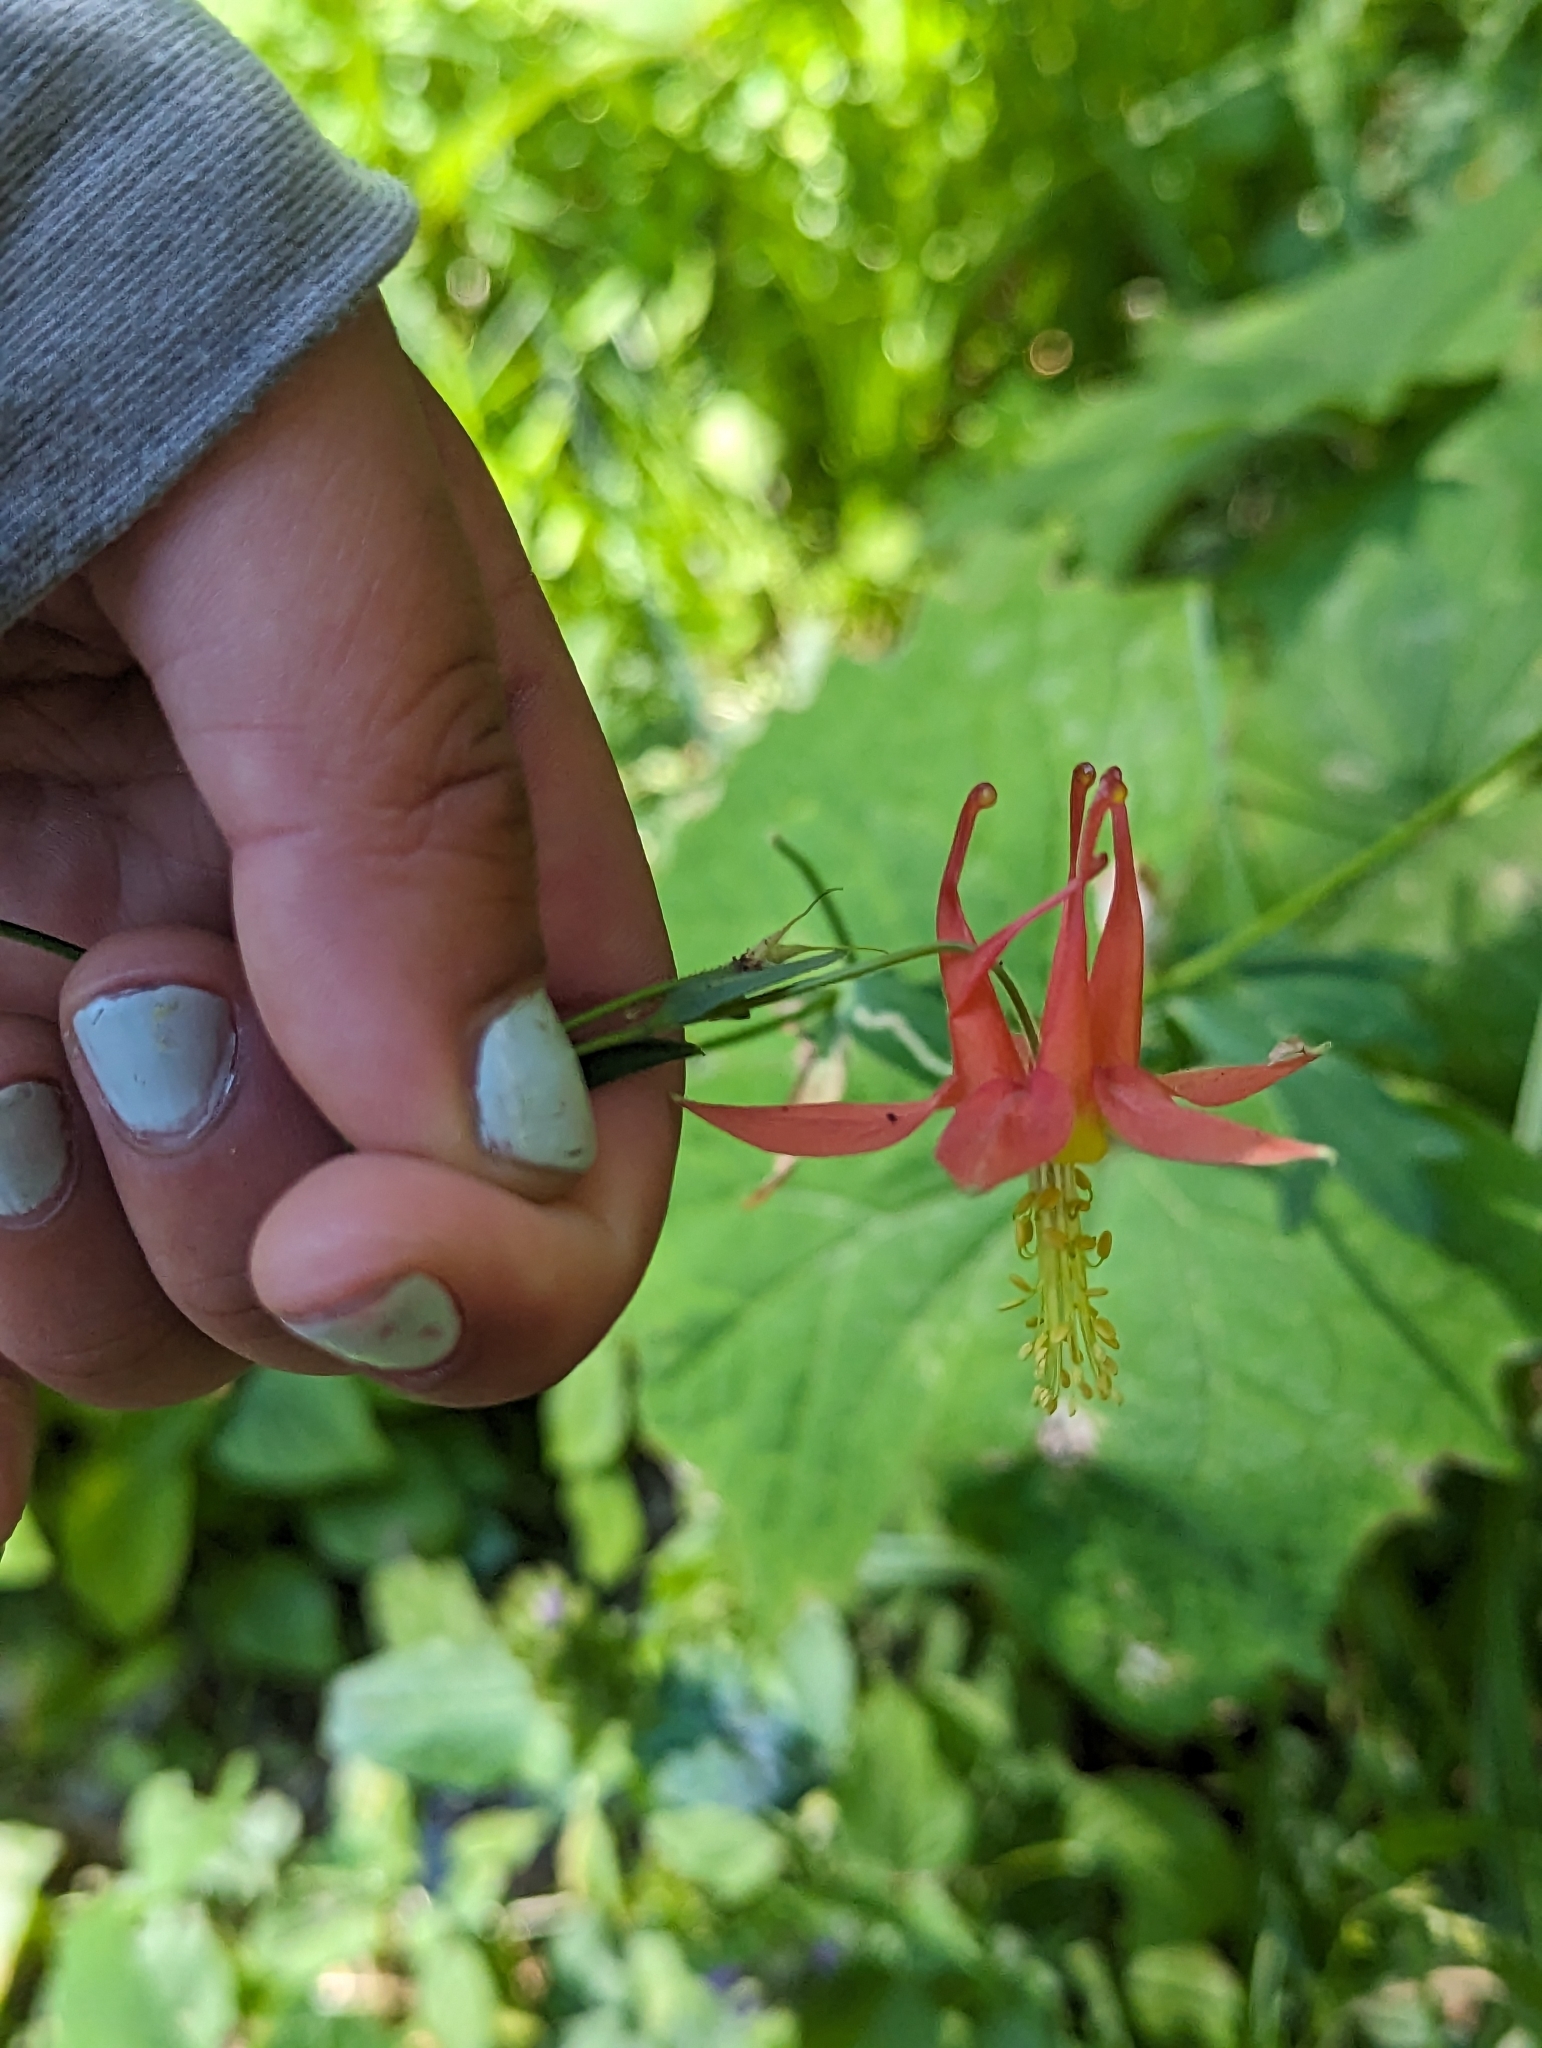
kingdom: Plantae
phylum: Tracheophyta
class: Magnoliopsida
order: Ranunculales
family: Ranunculaceae
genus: Aquilegia
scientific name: Aquilegia formosa
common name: Sitka columbine
